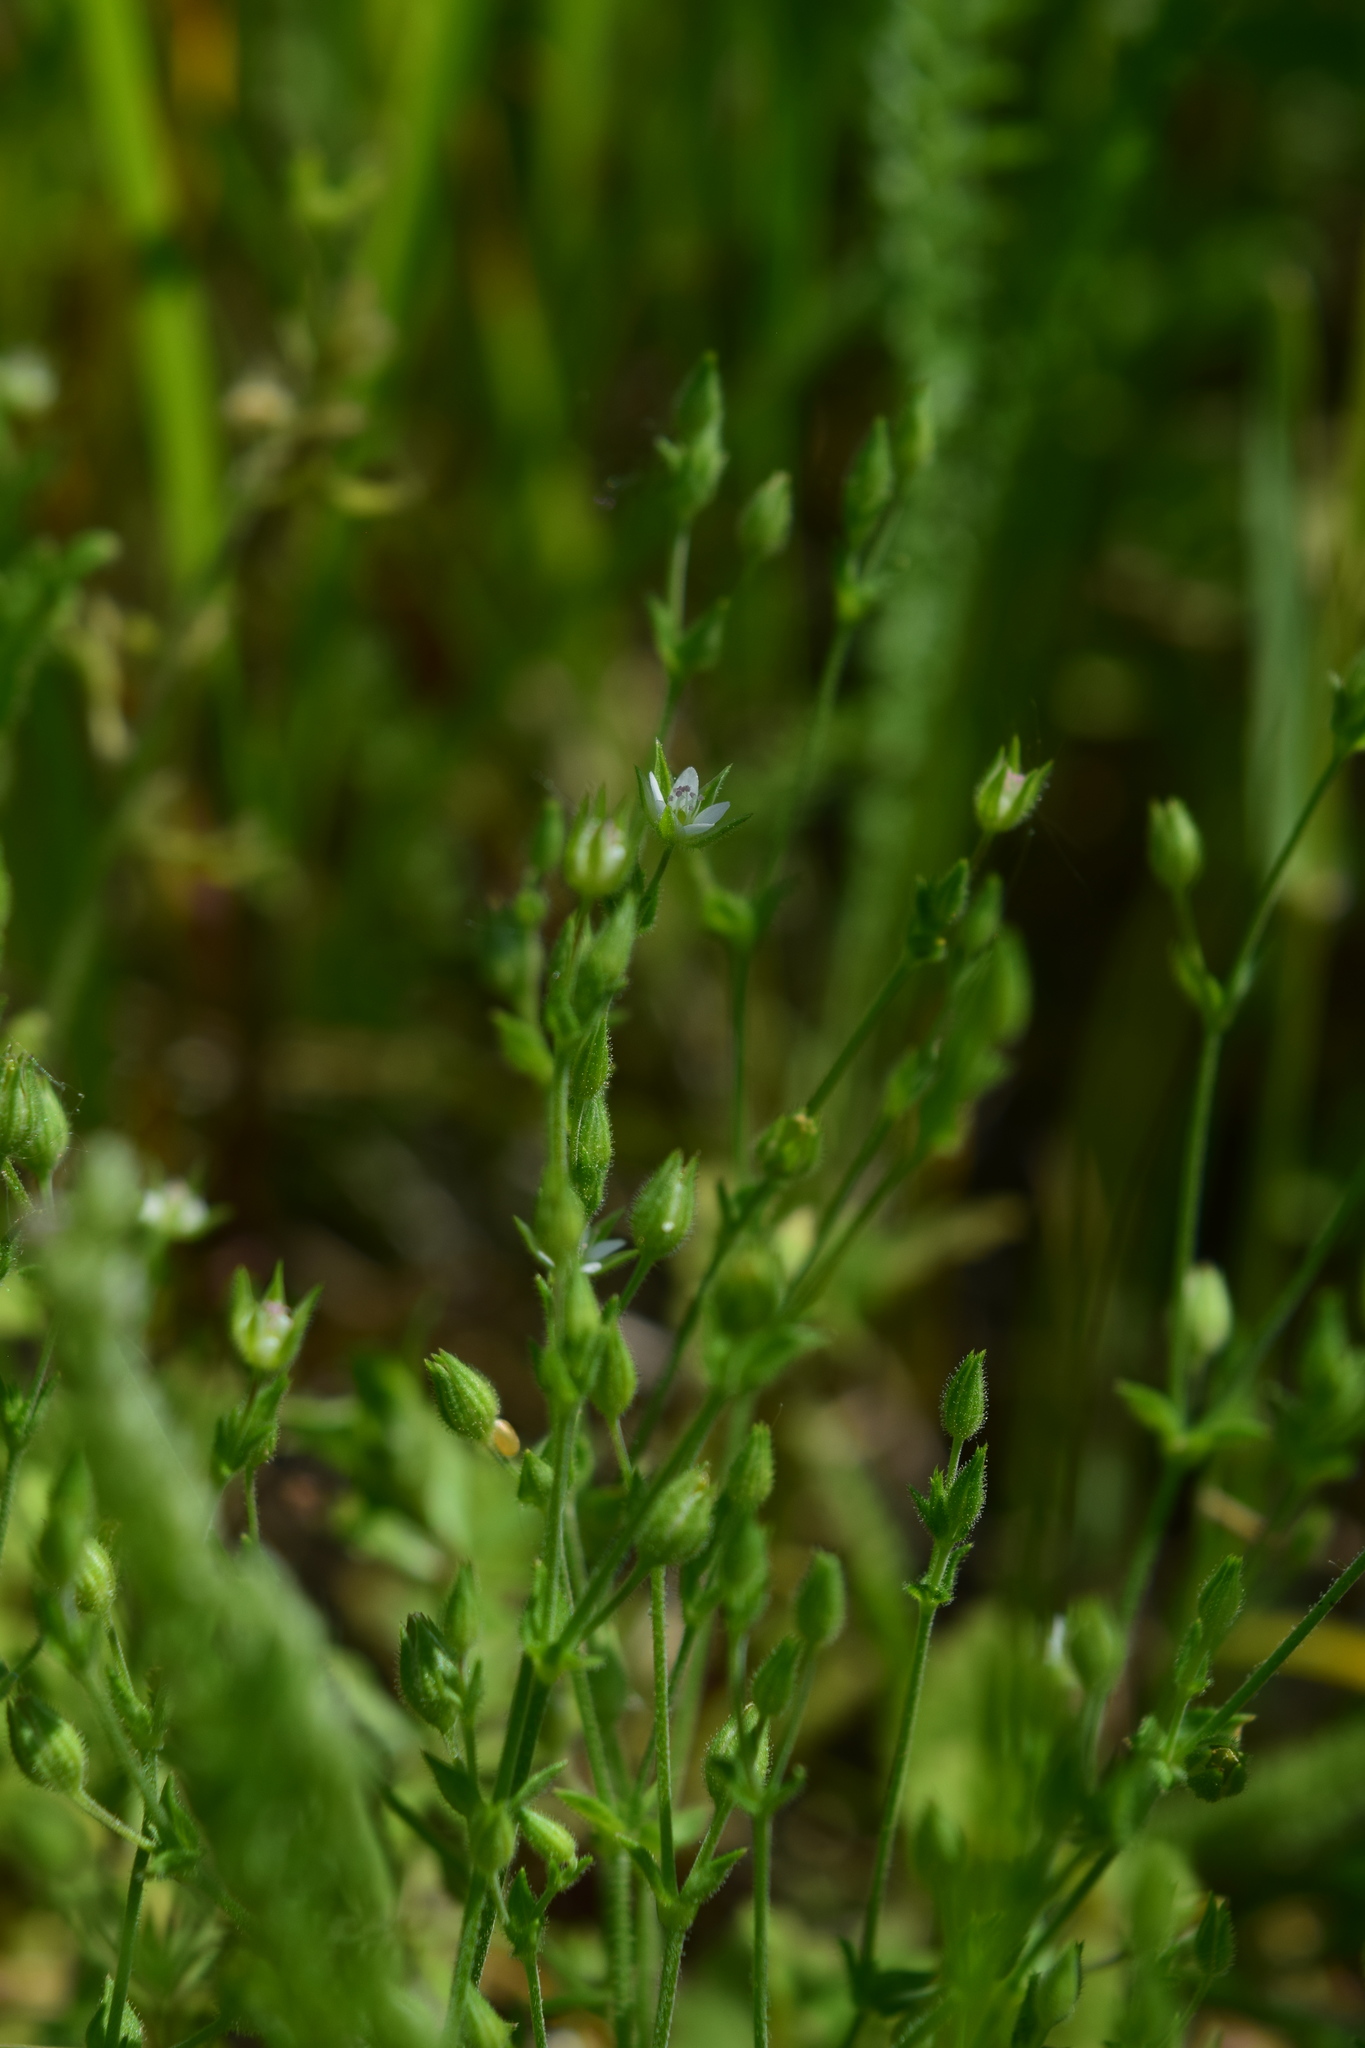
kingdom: Plantae
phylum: Tracheophyta
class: Magnoliopsida
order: Caryophyllales
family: Caryophyllaceae
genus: Arenaria
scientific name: Arenaria serpyllifolia
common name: Thyme-leaved sandwort
